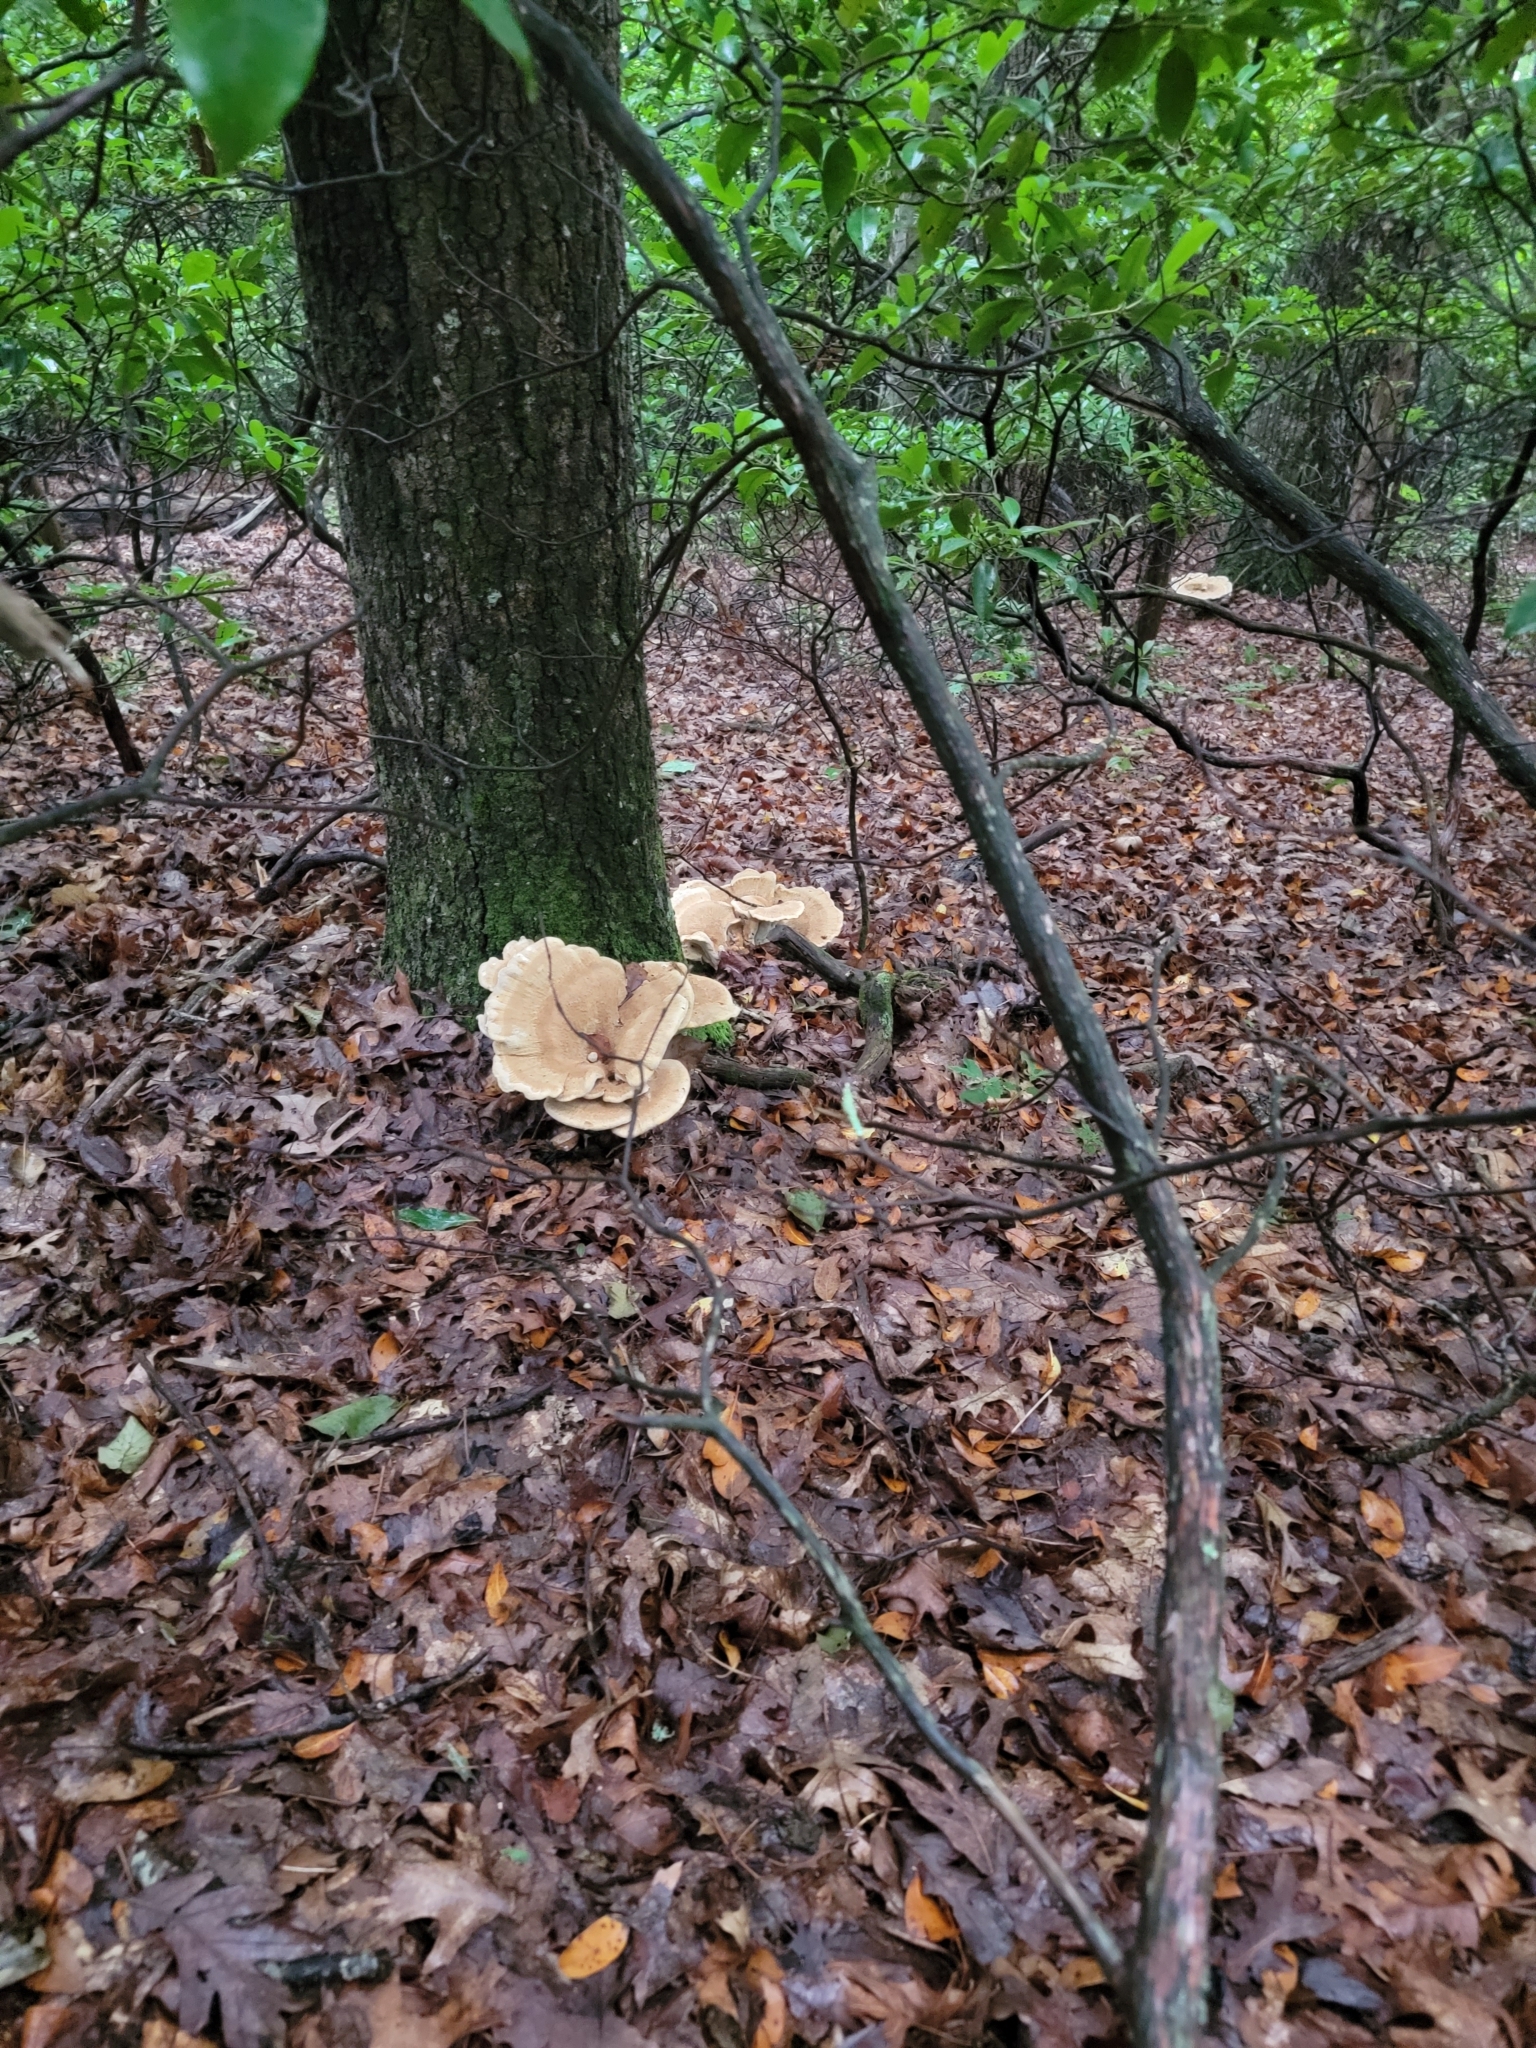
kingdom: Fungi
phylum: Basidiomycota
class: Agaricomycetes
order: Russulales
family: Bondarzewiaceae
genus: Bondarzewia
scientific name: Bondarzewia berkeleyi
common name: Berkeley's polypore
